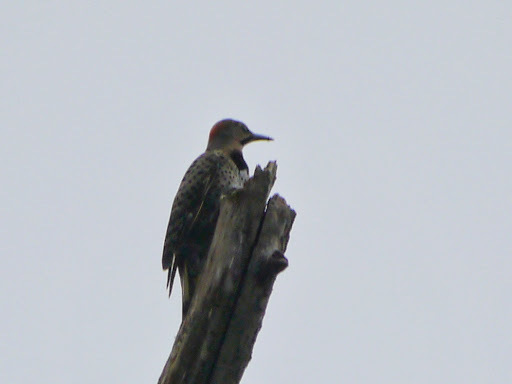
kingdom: Animalia
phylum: Chordata
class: Aves
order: Piciformes
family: Picidae
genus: Colaptes
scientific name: Colaptes auratus
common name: Northern flicker
